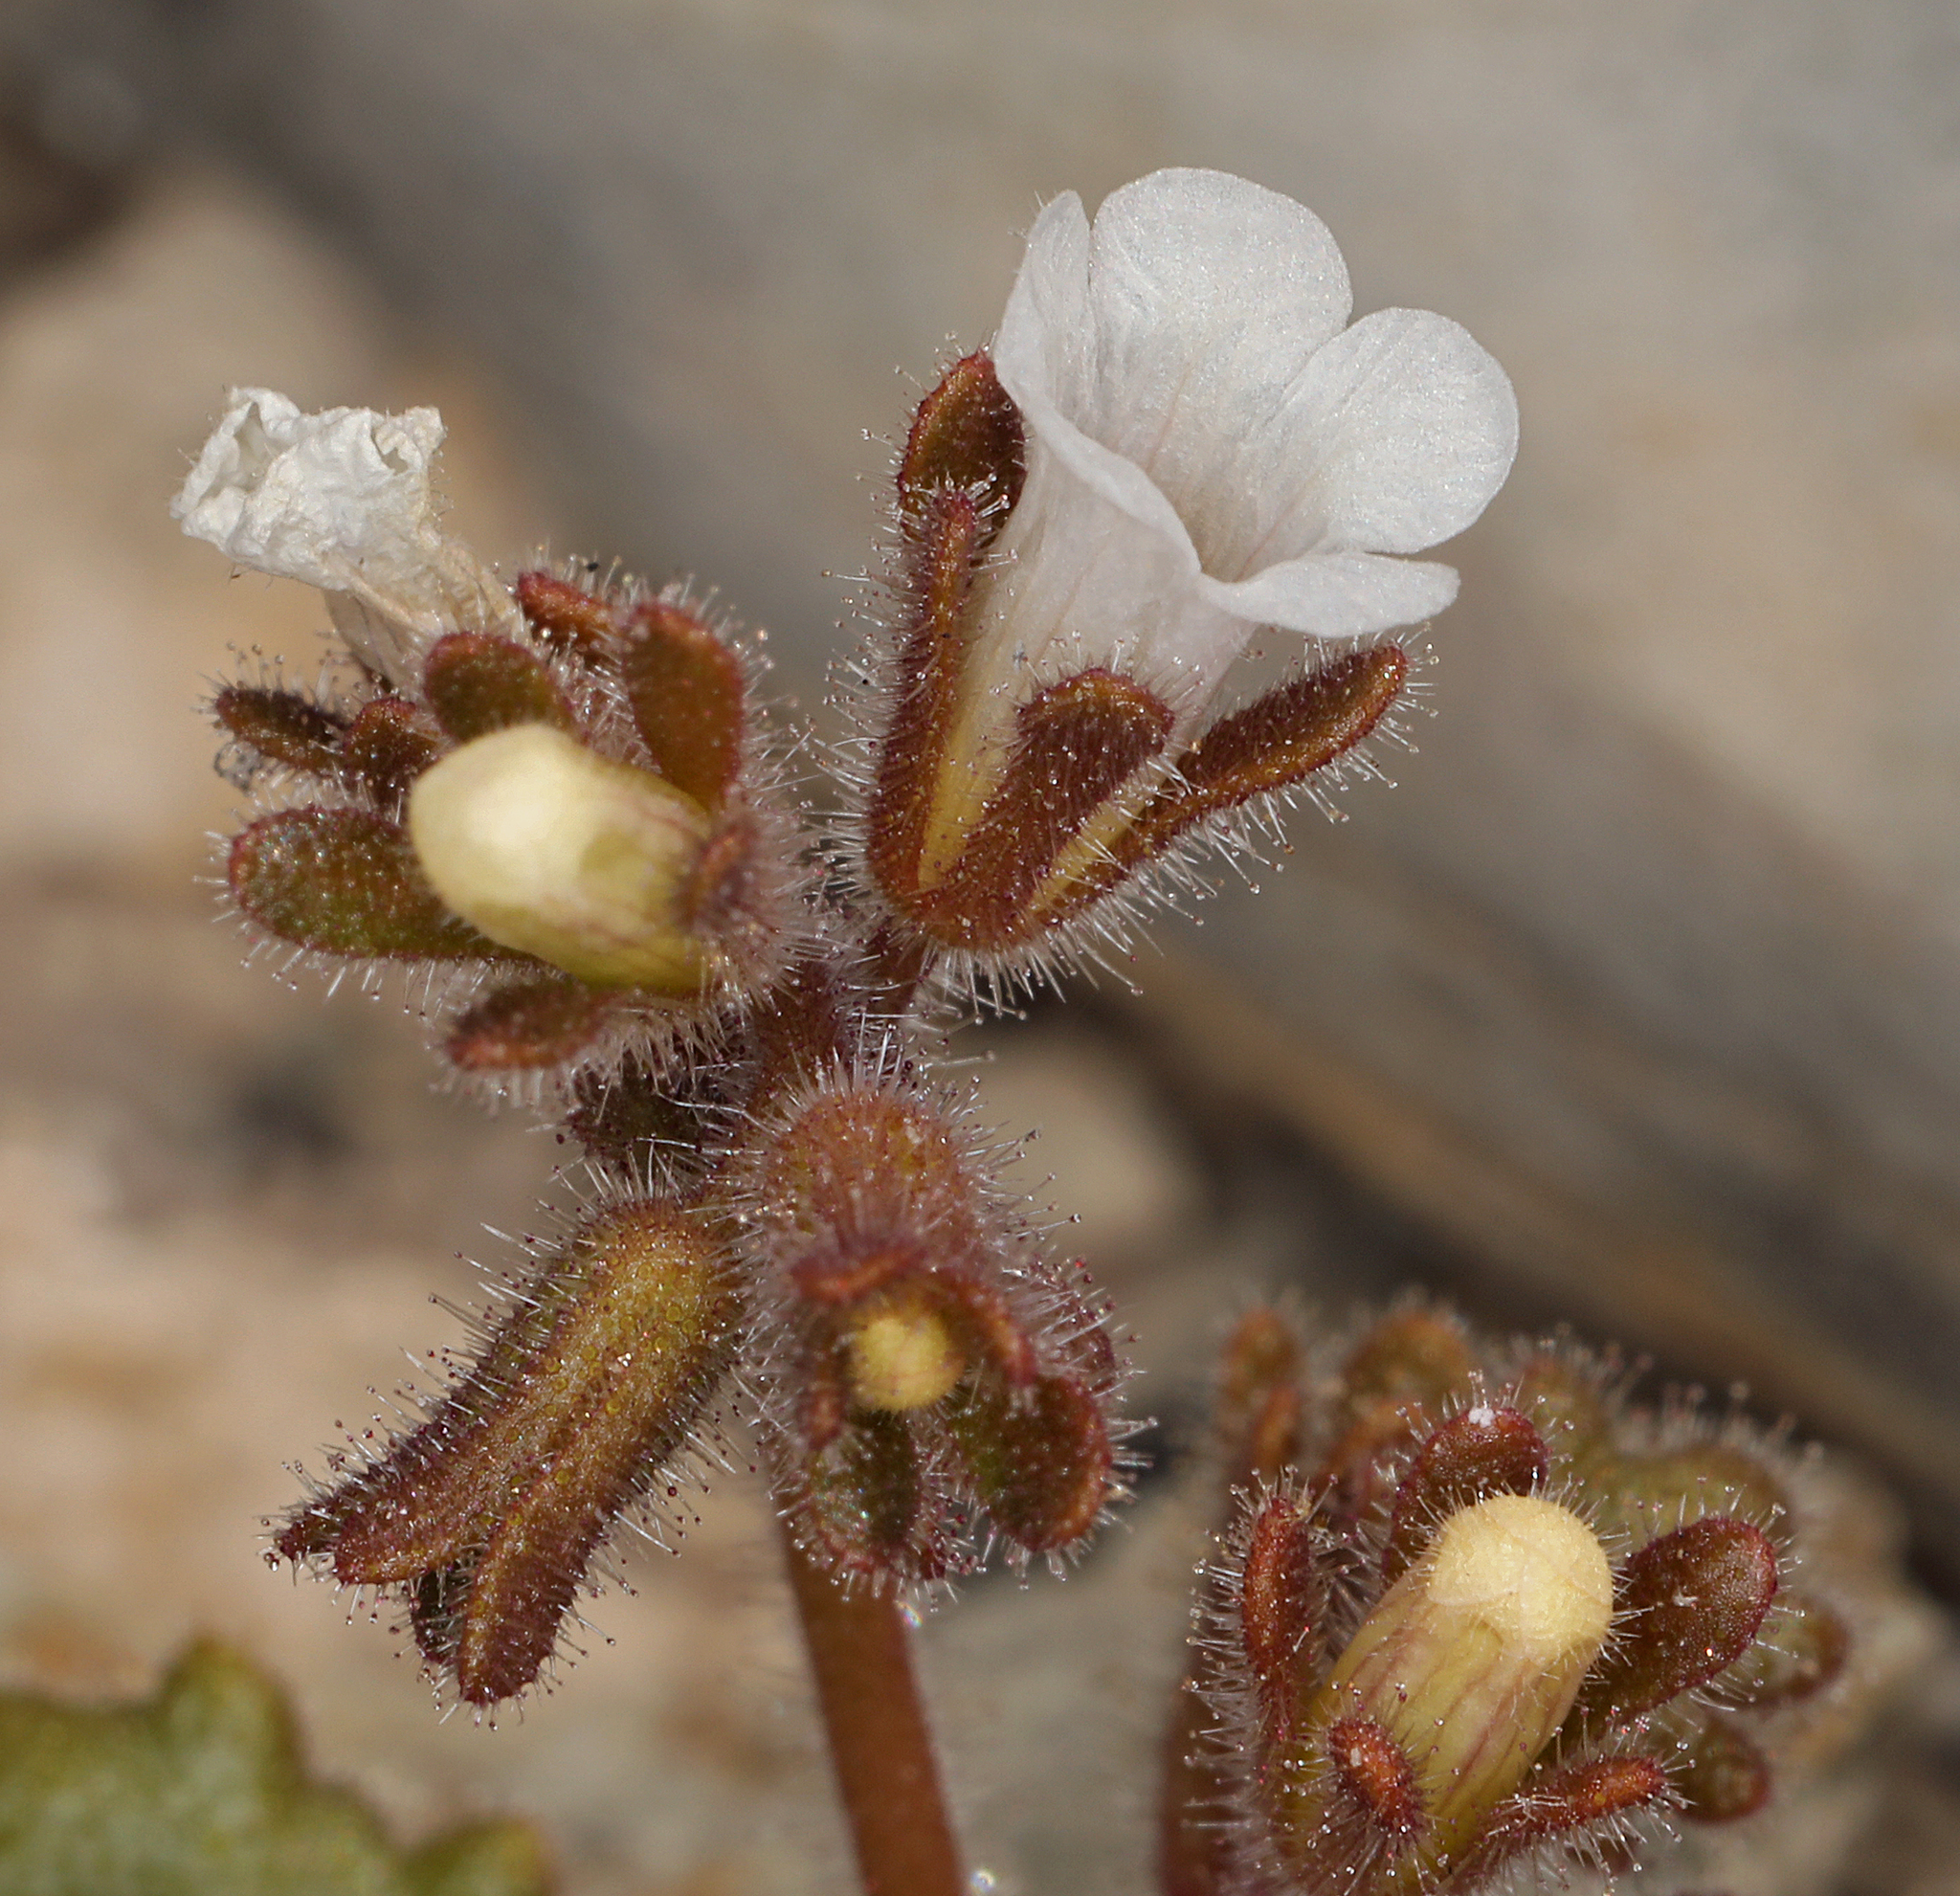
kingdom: Plantae
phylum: Tracheophyta
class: Magnoliopsida
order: Boraginales
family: Hydrophyllaceae
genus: Phacelia
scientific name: Phacelia rotundifolia
